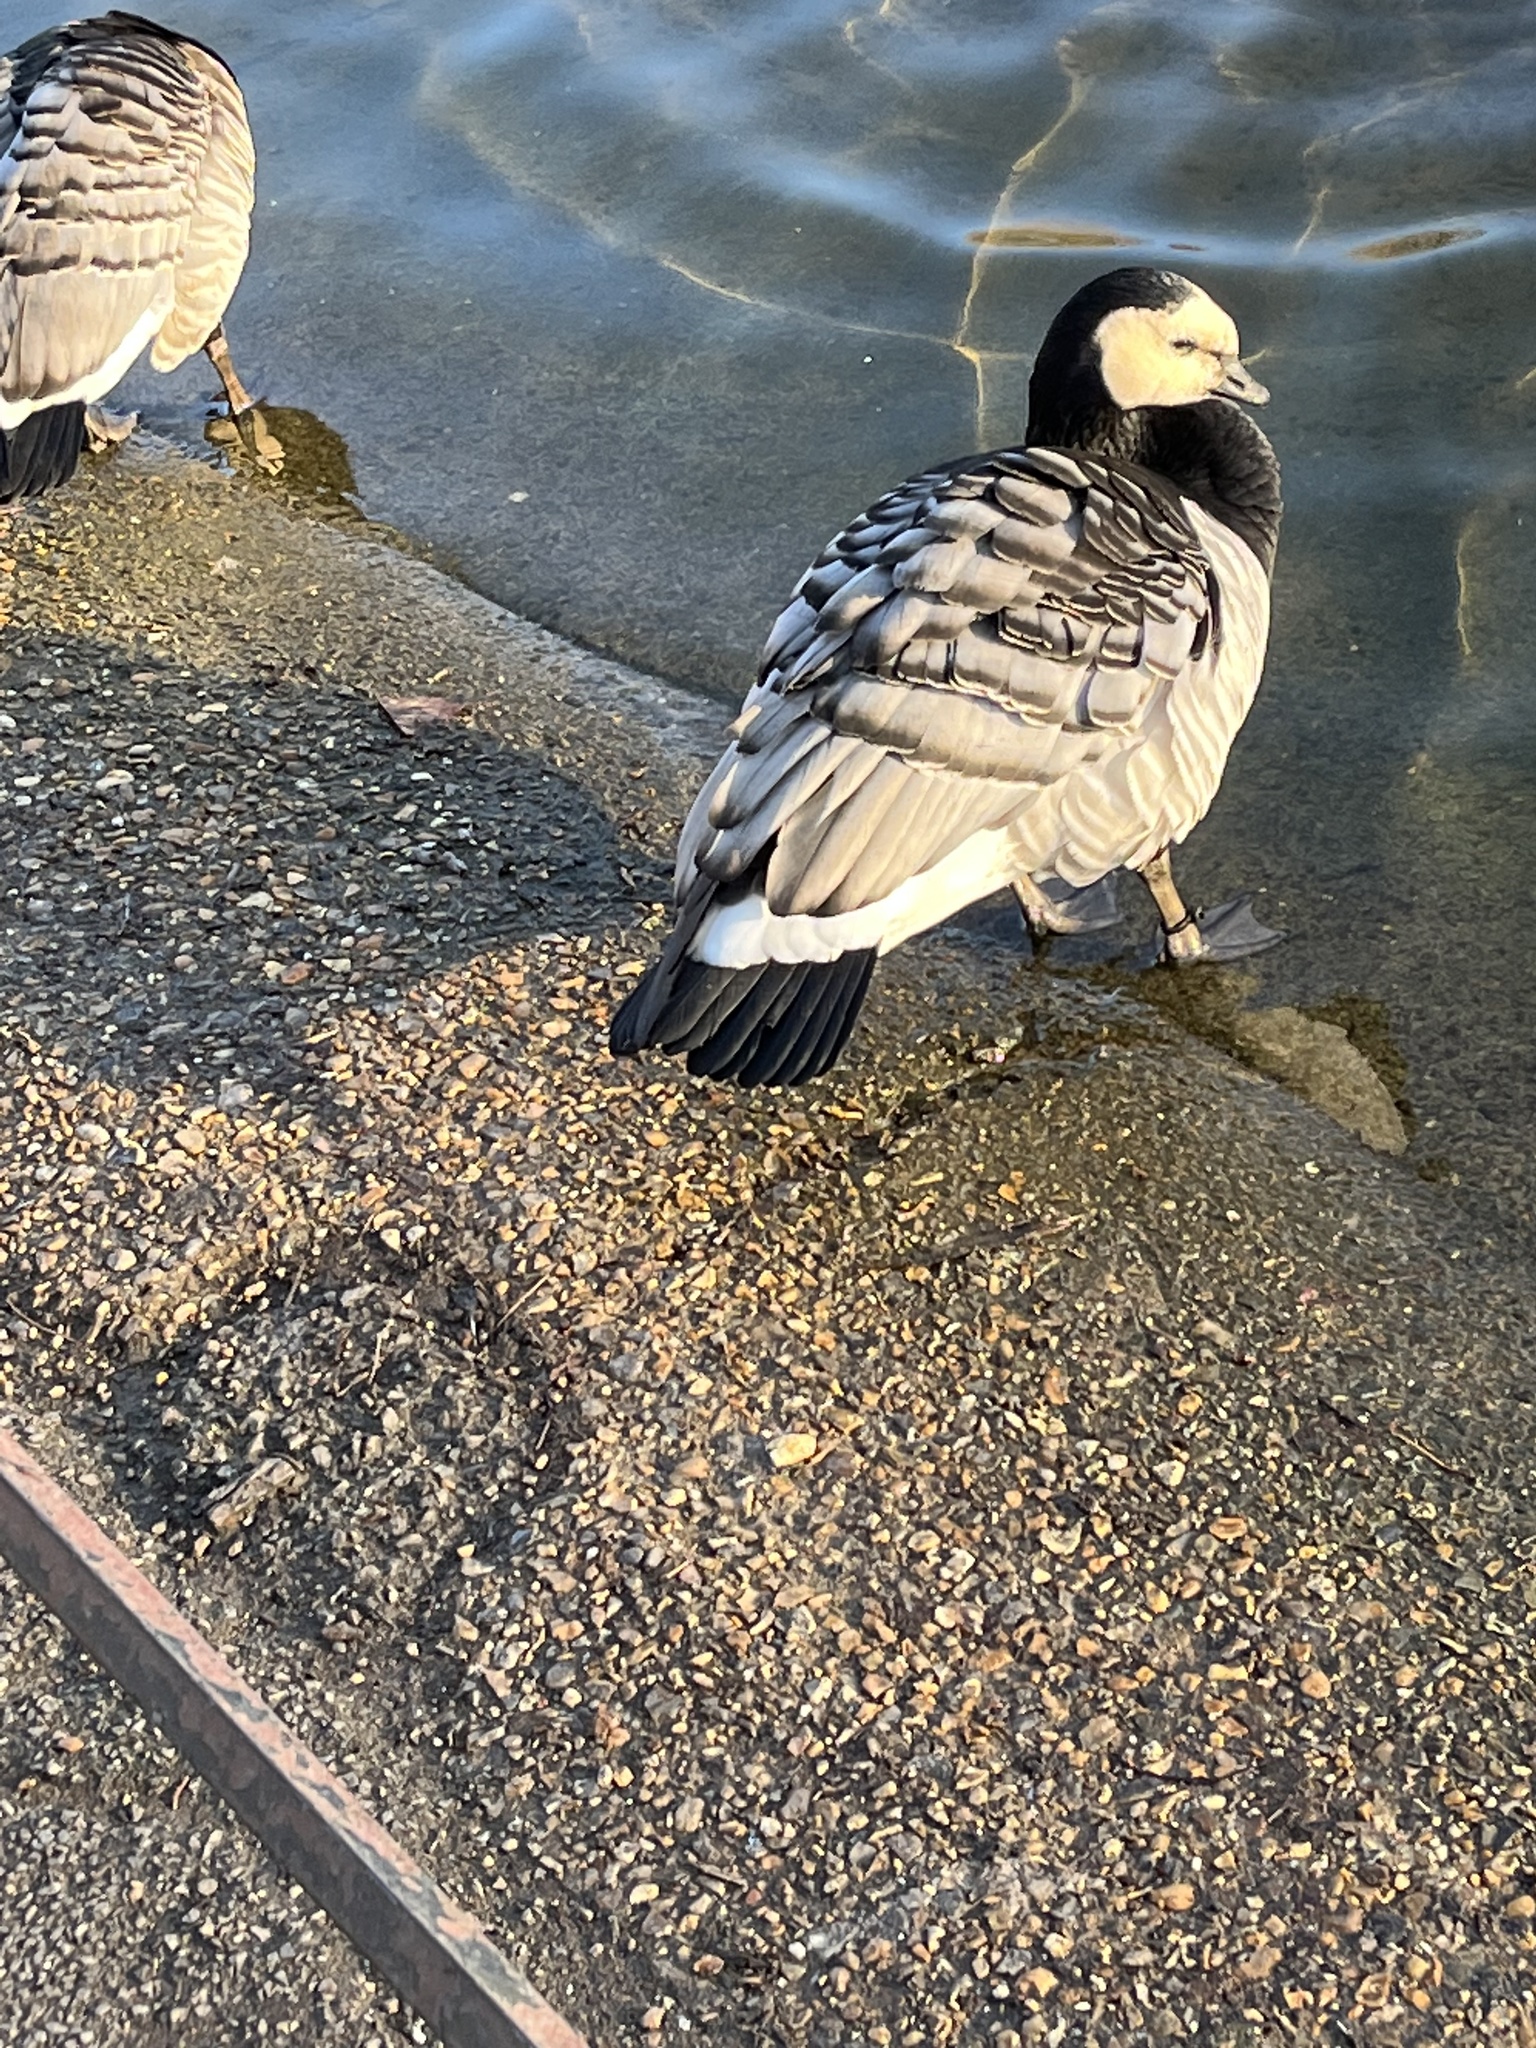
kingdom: Animalia
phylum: Chordata
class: Aves
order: Anseriformes
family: Anatidae
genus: Branta
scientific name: Branta leucopsis
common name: Barnacle goose
